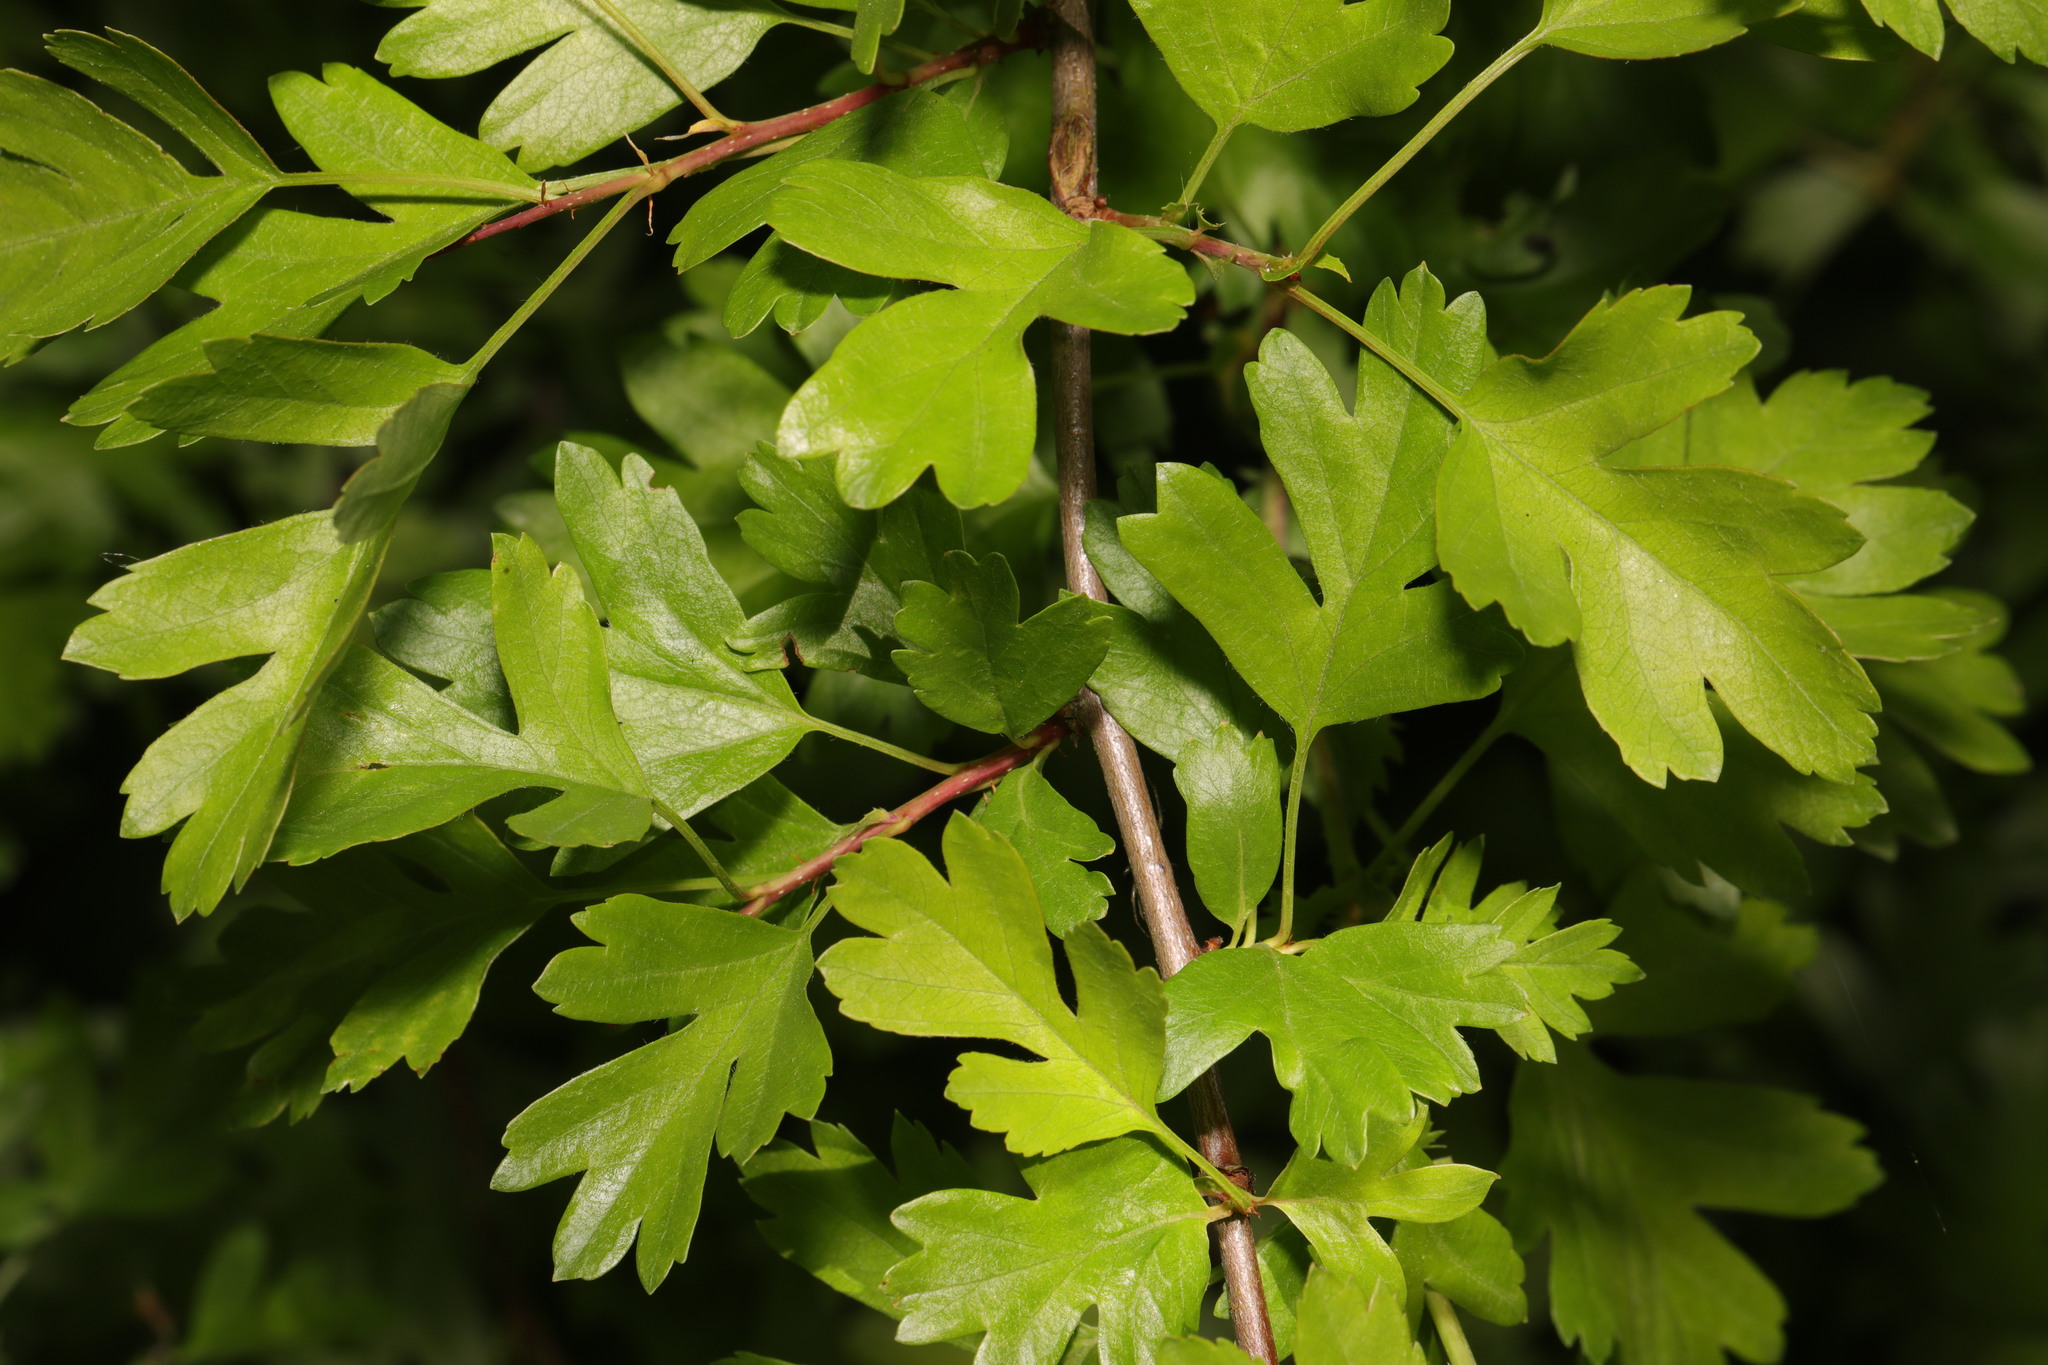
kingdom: Plantae
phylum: Tracheophyta
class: Magnoliopsida
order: Rosales
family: Rosaceae
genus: Crataegus
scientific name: Crataegus monogyna
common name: Hawthorn
